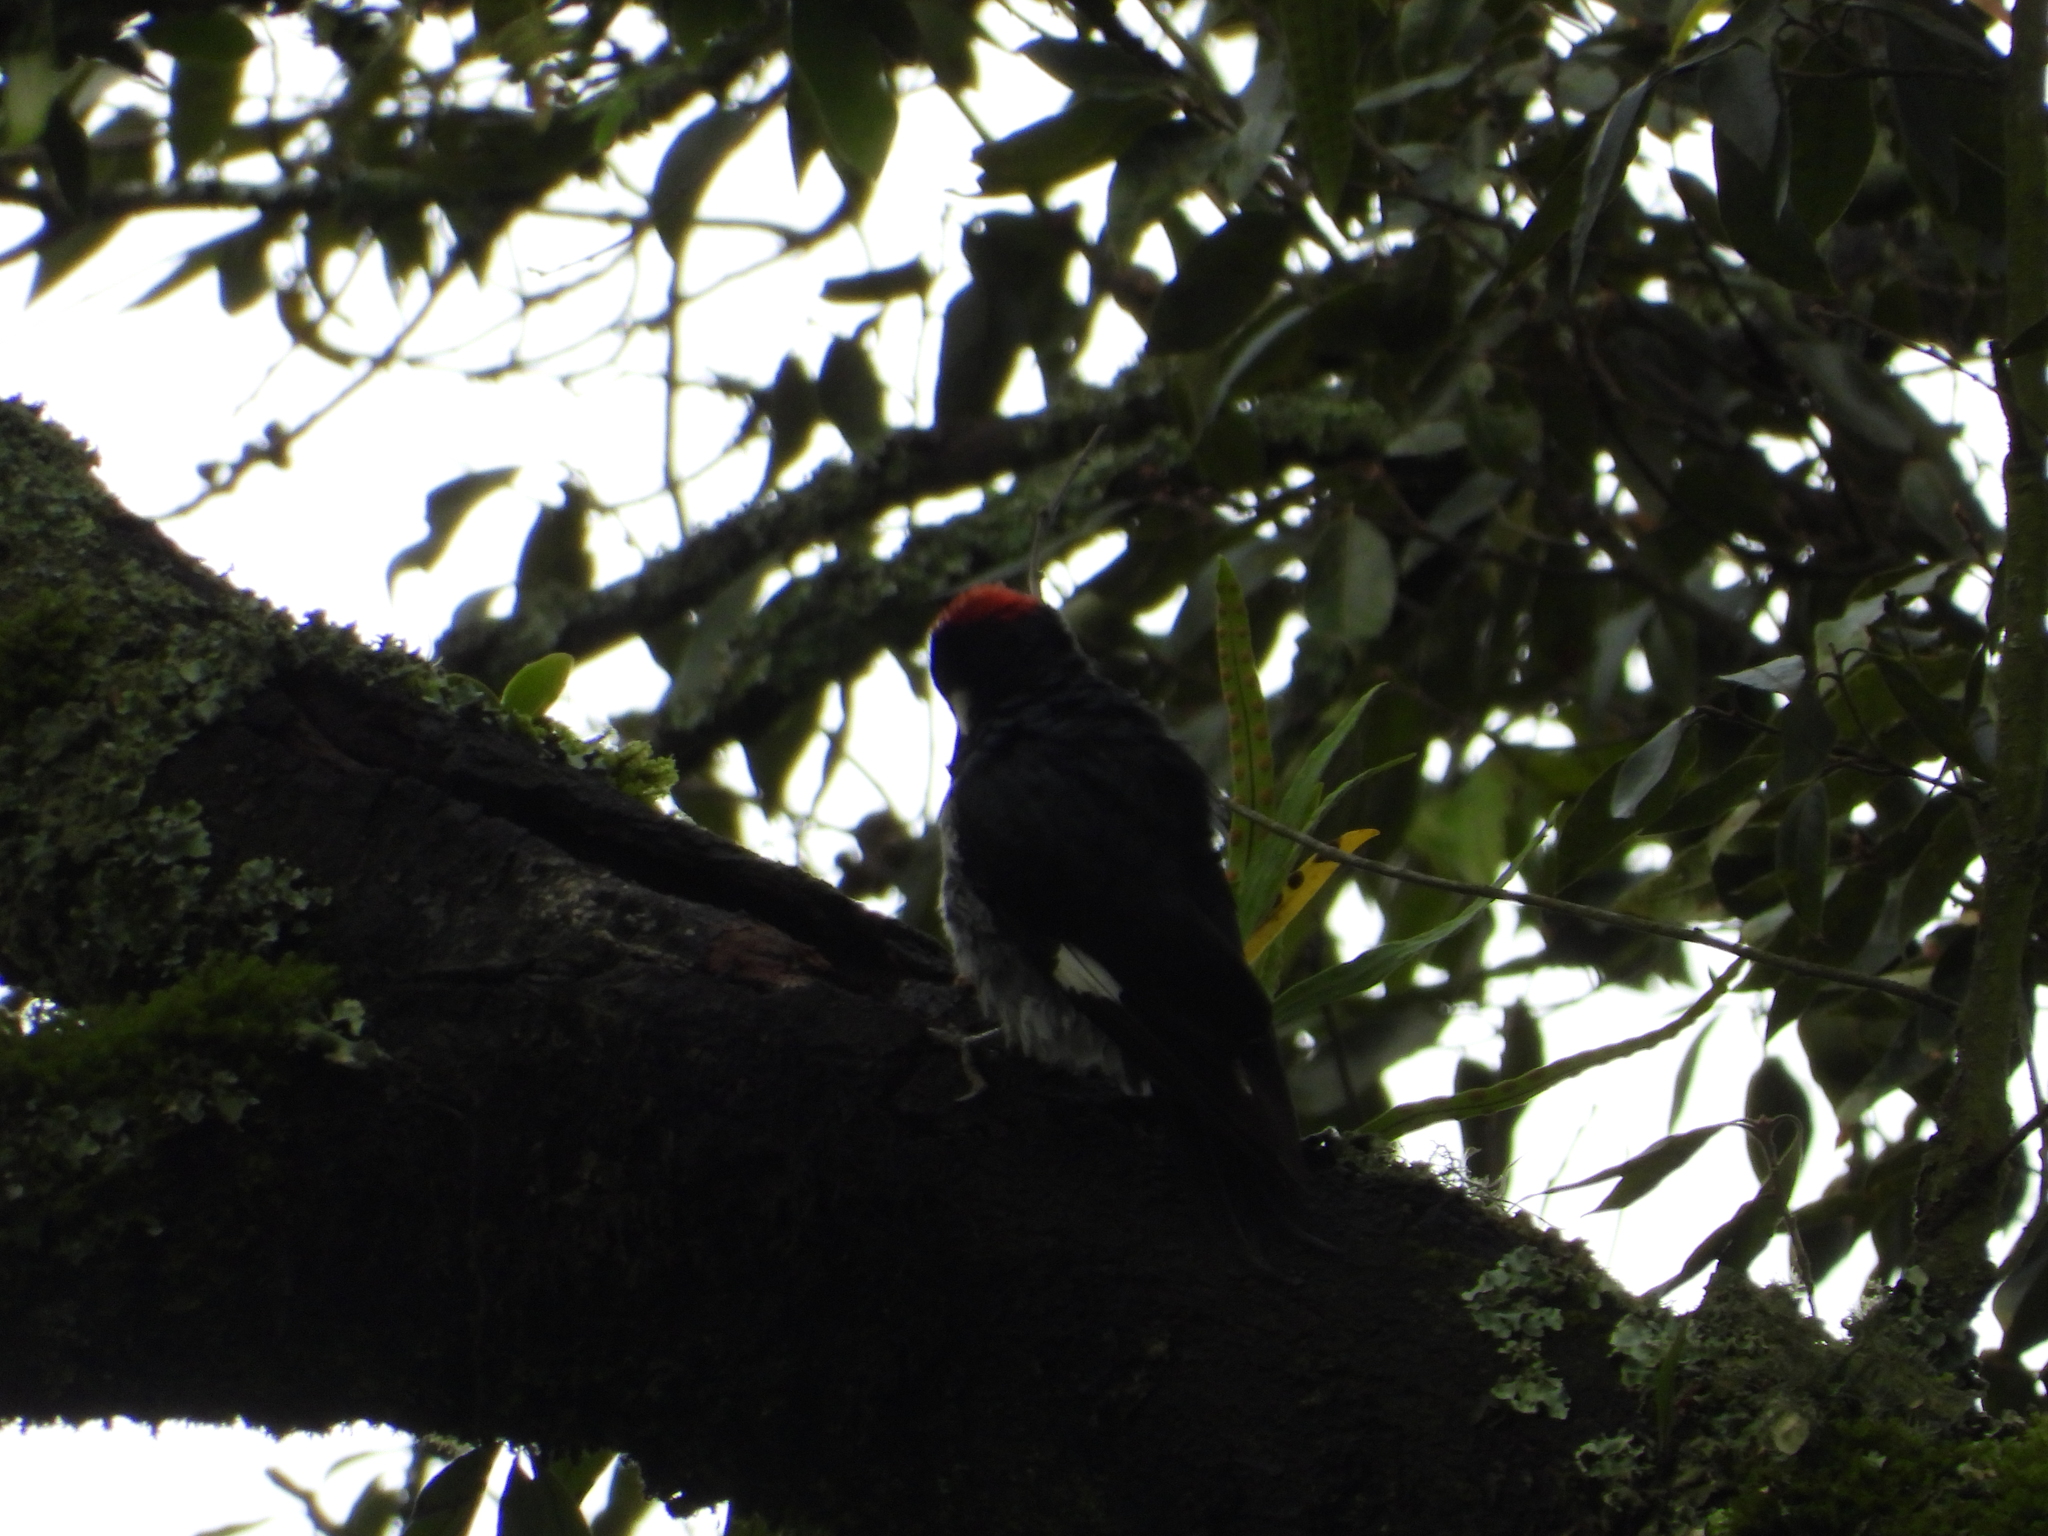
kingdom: Animalia
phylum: Chordata
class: Aves
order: Piciformes
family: Picidae
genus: Melanerpes
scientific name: Melanerpes formicivorus
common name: Acorn woodpecker
